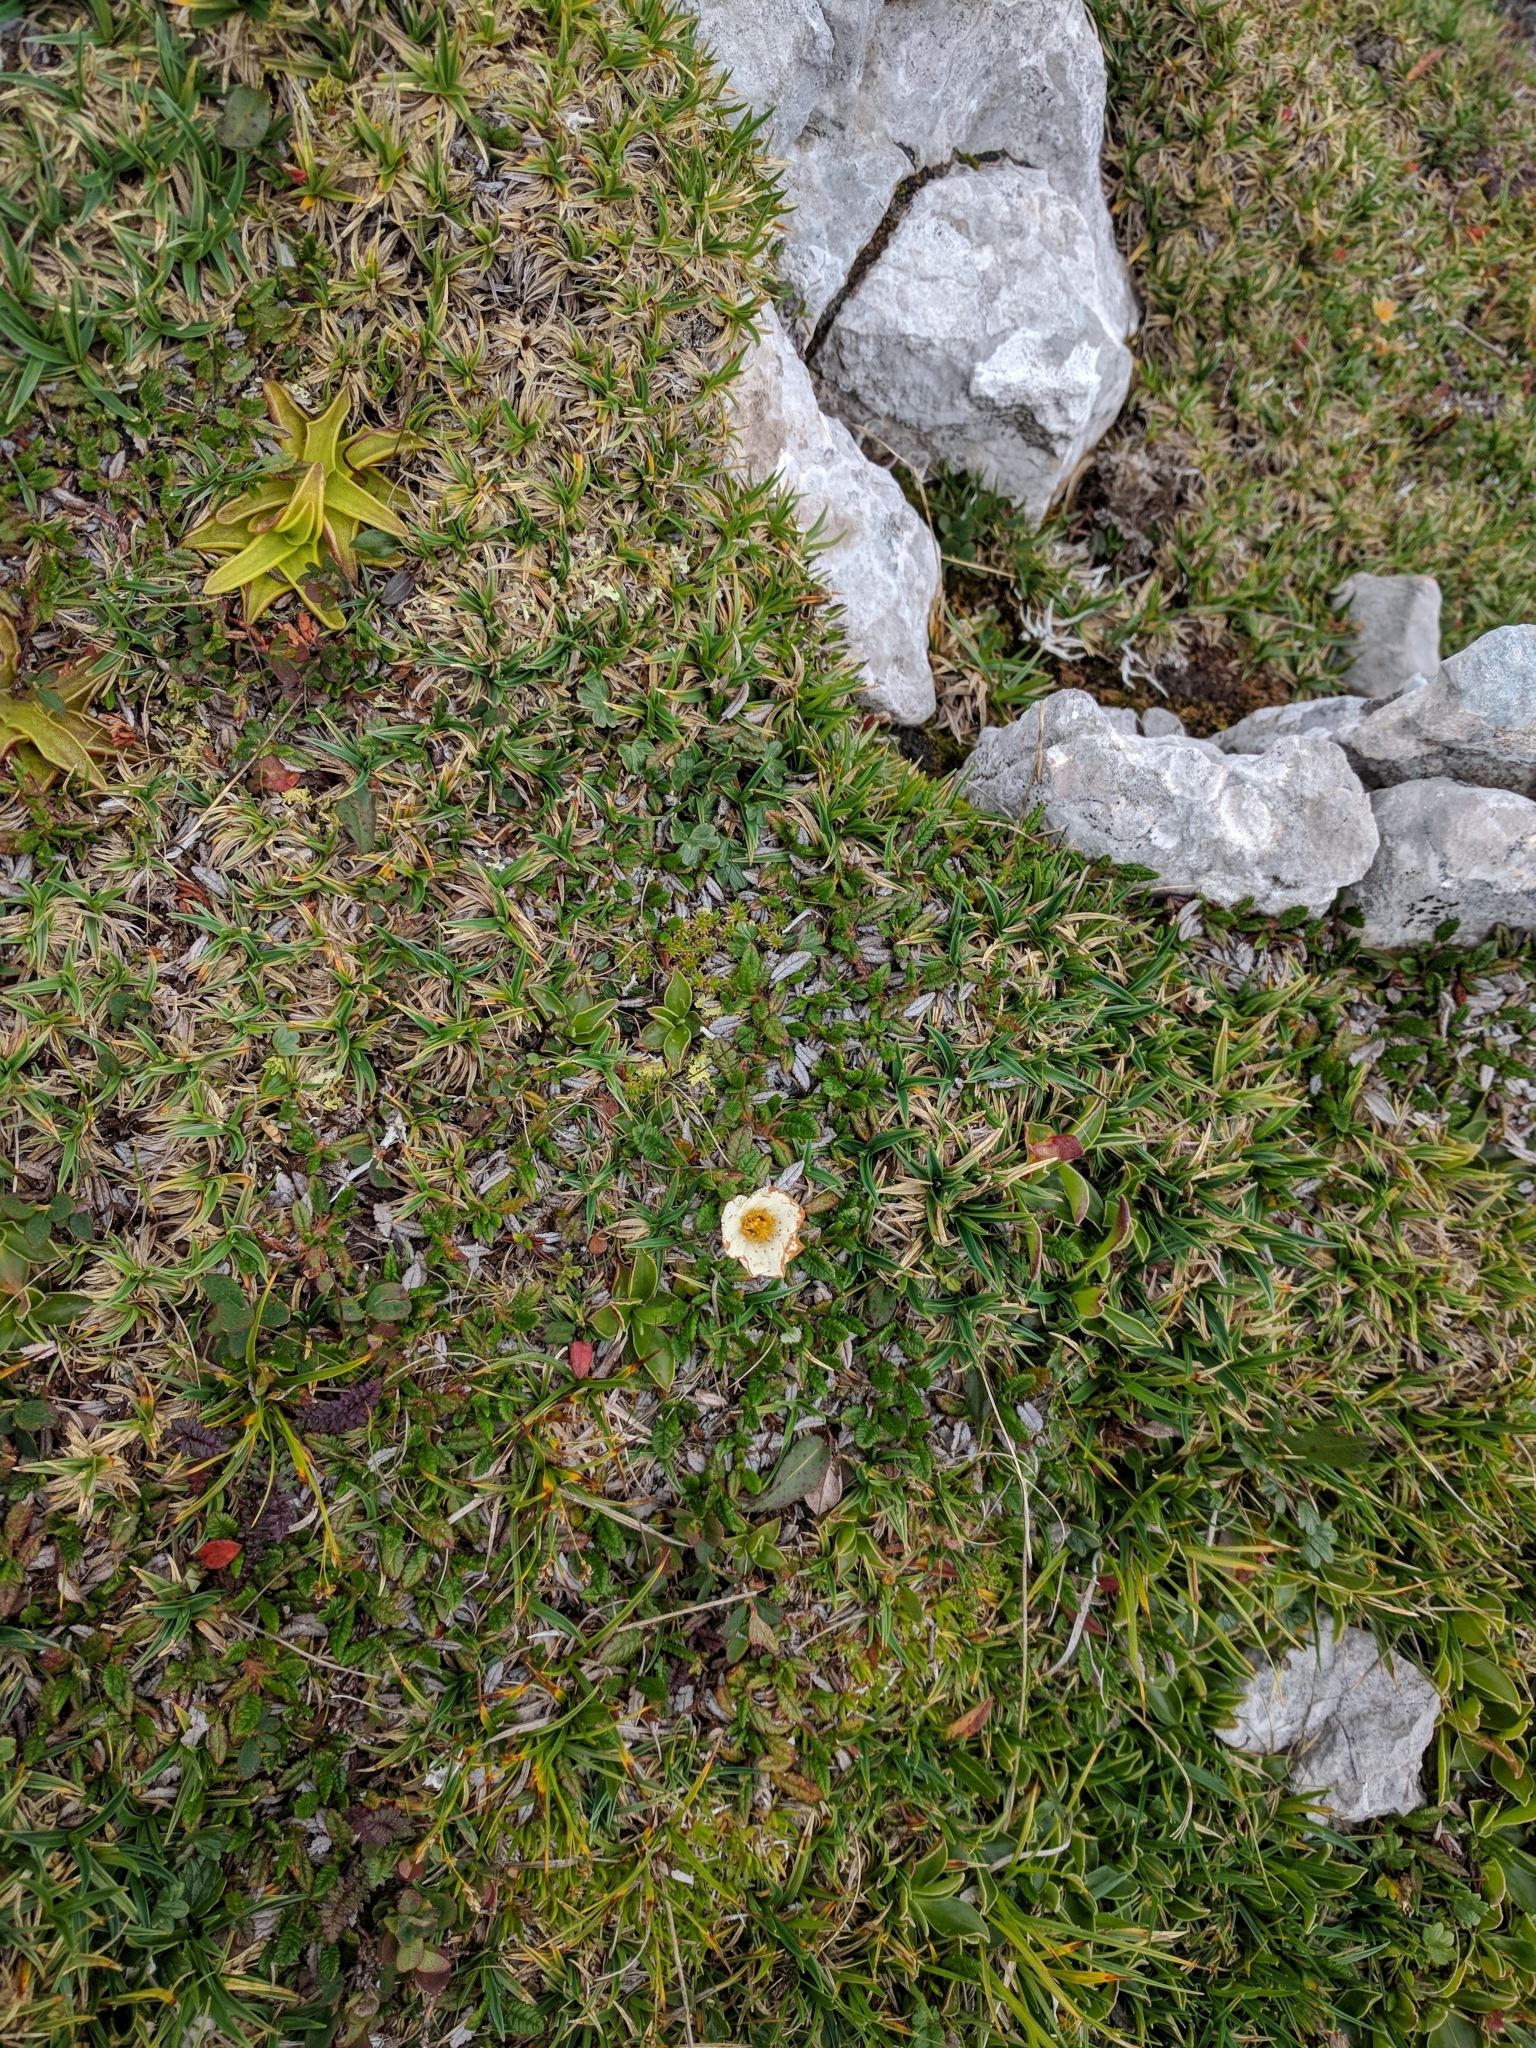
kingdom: Plantae
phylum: Tracheophyta
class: Magnoliopsida
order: Rosales
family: Rosaceae
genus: Dryas
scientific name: Dryas octopetala
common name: Eight-petal mountain-avens
